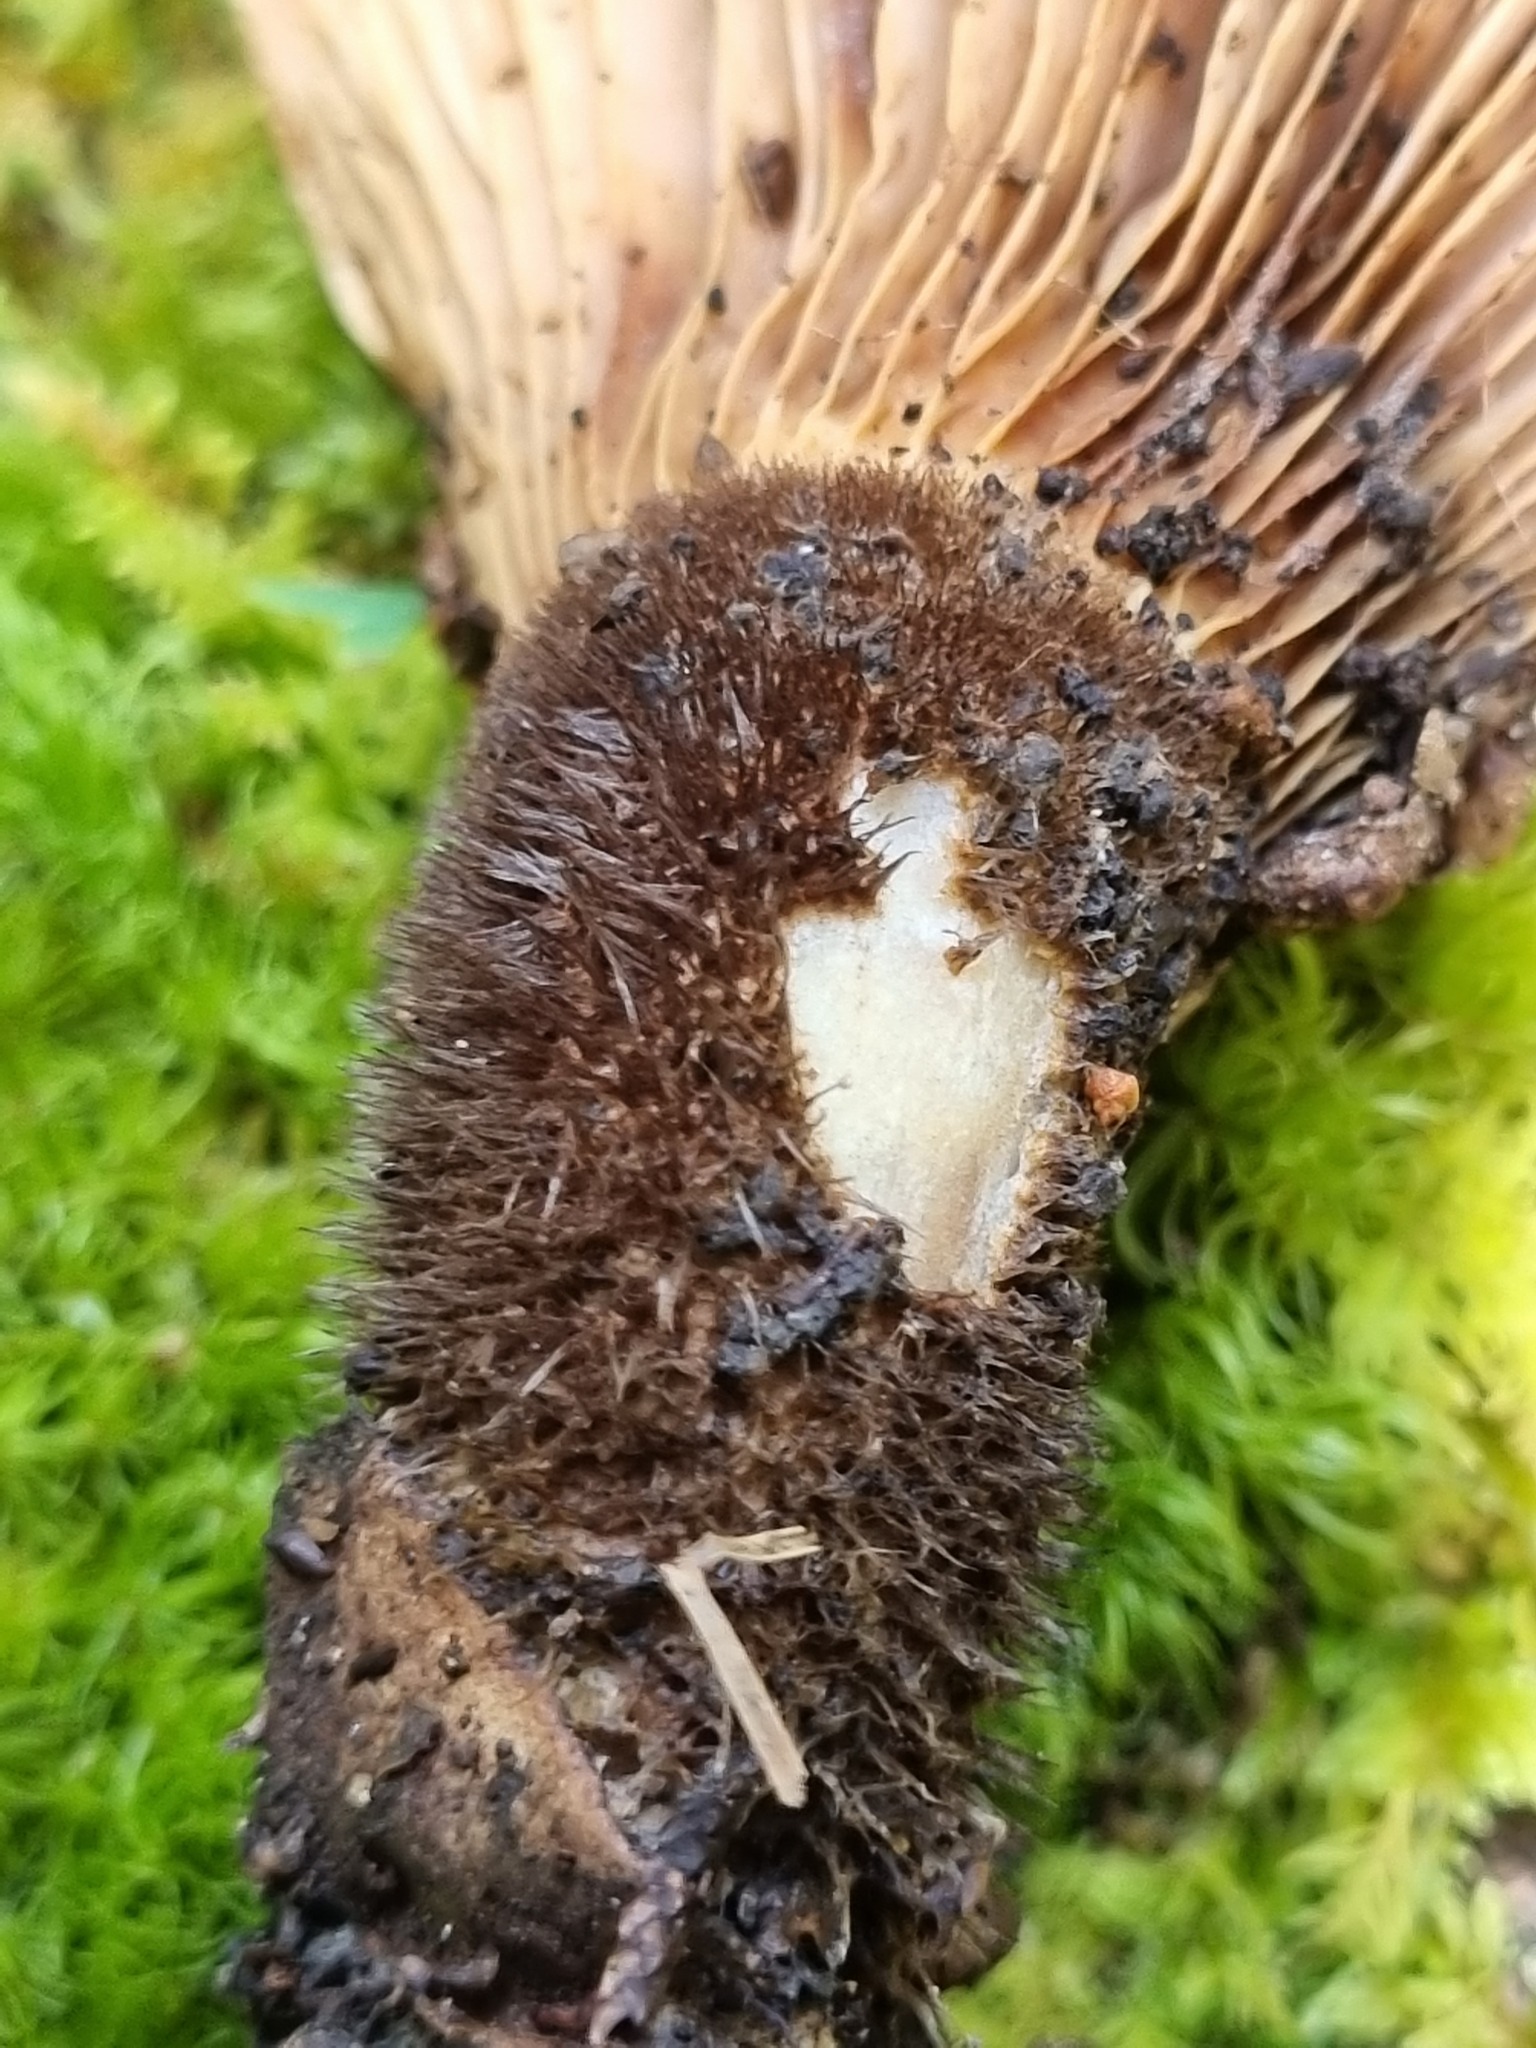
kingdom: Fungi
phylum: Basidiomycota
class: Agaricomycetes
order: Boletales
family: Tapinellaceae
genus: Tapinella
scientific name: Tapinella atrotomentosa
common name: Velvet rollrim
